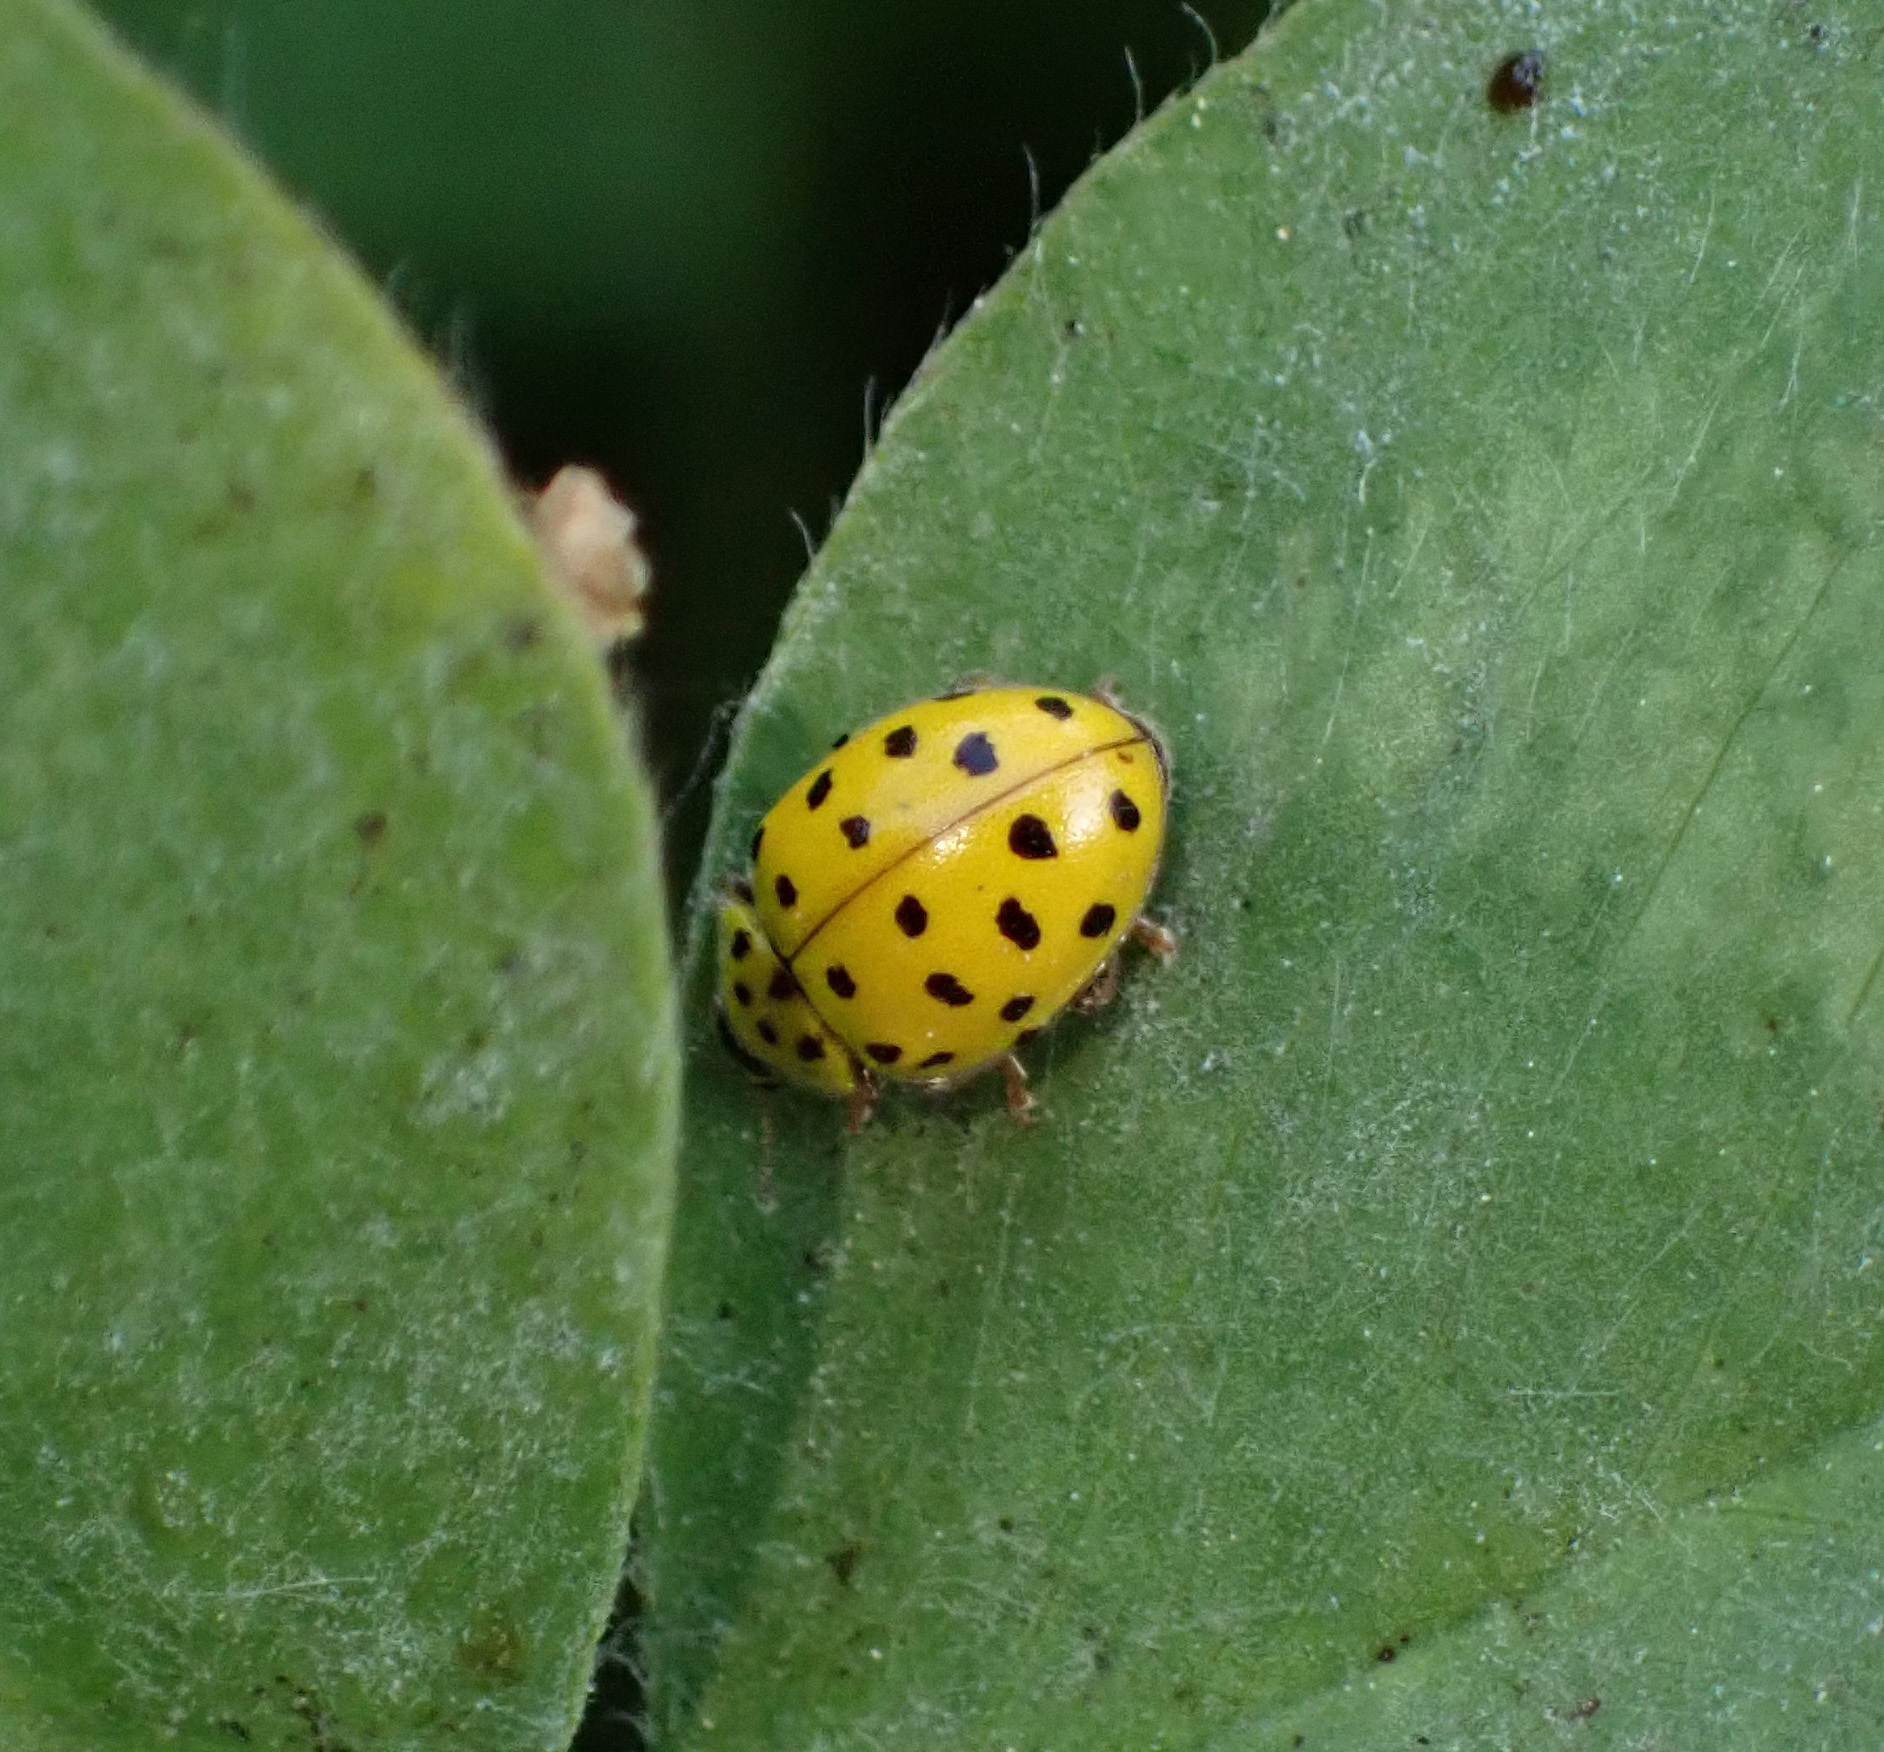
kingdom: Animalia
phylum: Arthropoda
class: Insecta
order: Coleoptera
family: Coccinellidae
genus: Psyllobora
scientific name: Psyllobora vigintiduopunctata
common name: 22-spot ladybird
